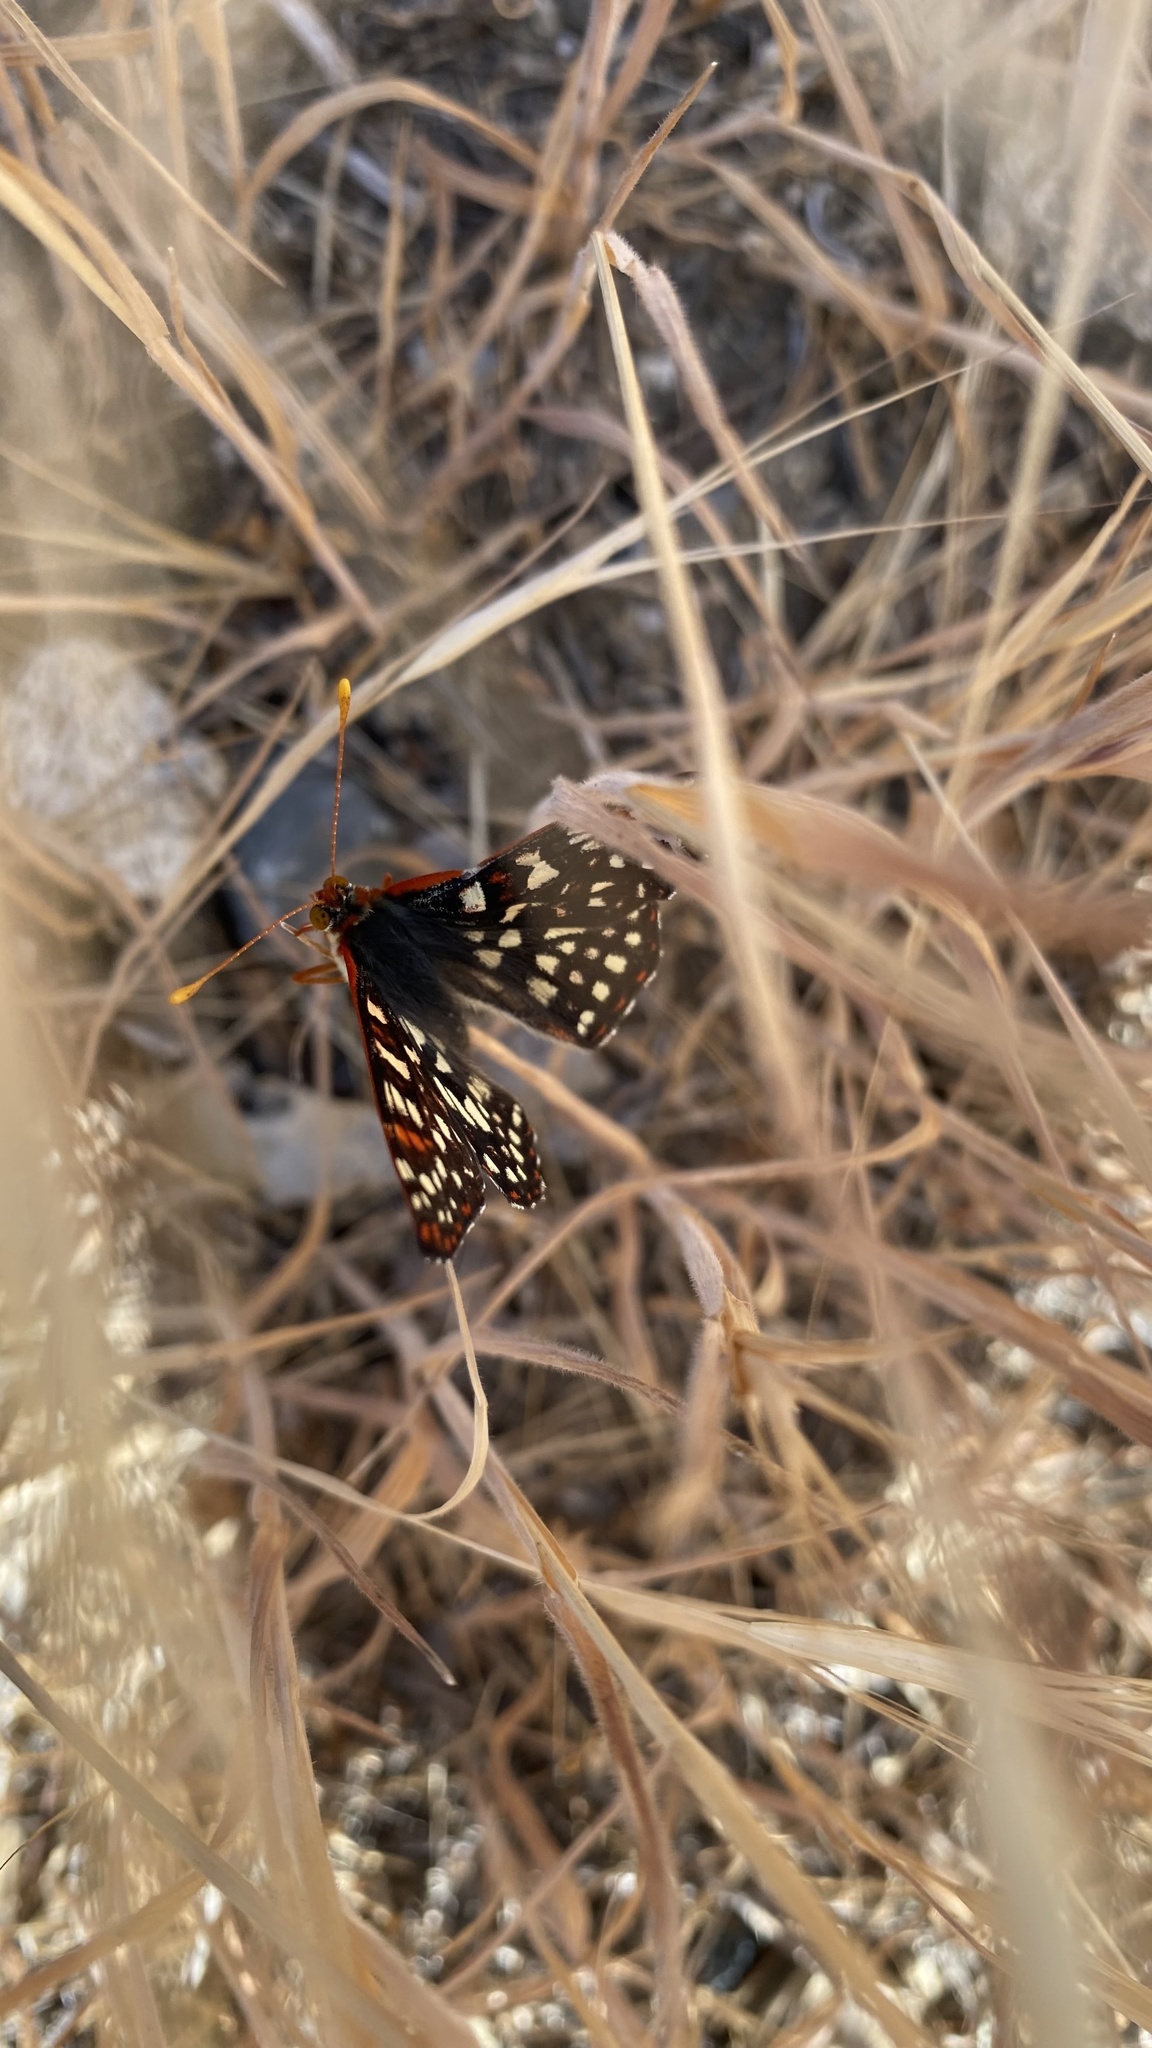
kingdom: Animalia
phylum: Arthropoda
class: Insecta
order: Lepidoptera
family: Nymphalidae
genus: Occidryas
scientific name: Occidryas chalcedona
